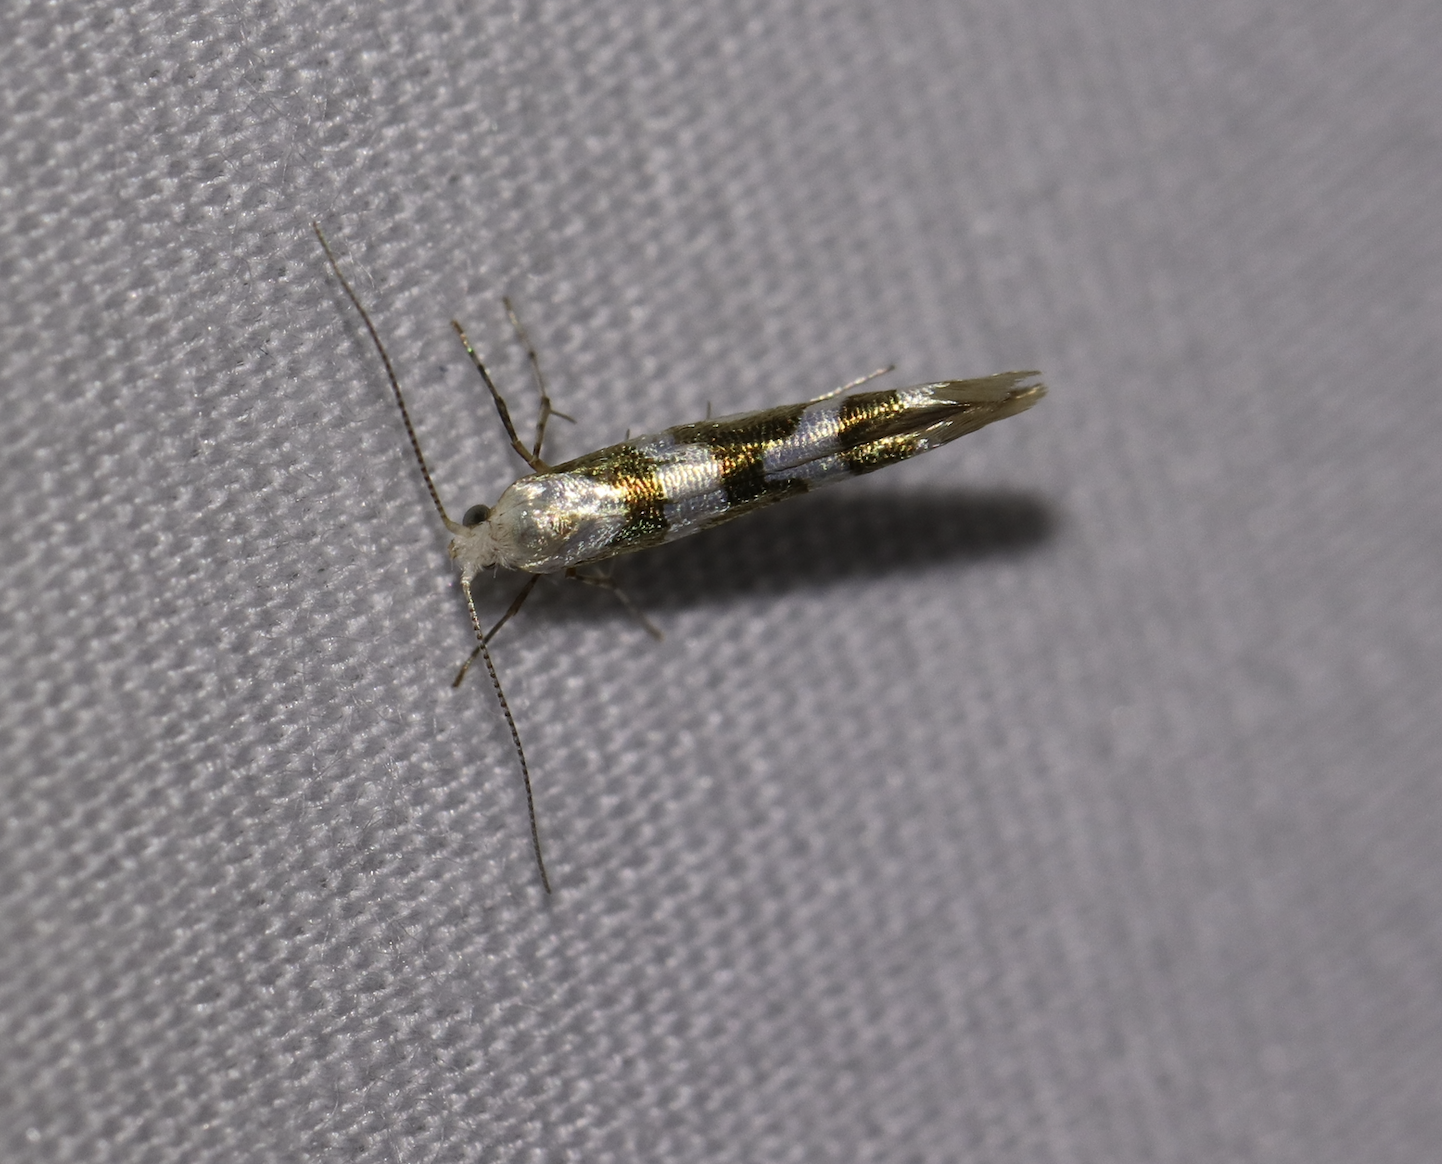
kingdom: Animalia
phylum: Arthropoda
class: Insecta
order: Lepidoptera
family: Argyresthiidae
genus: Argyresthia
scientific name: Argyresthia calliphanes
